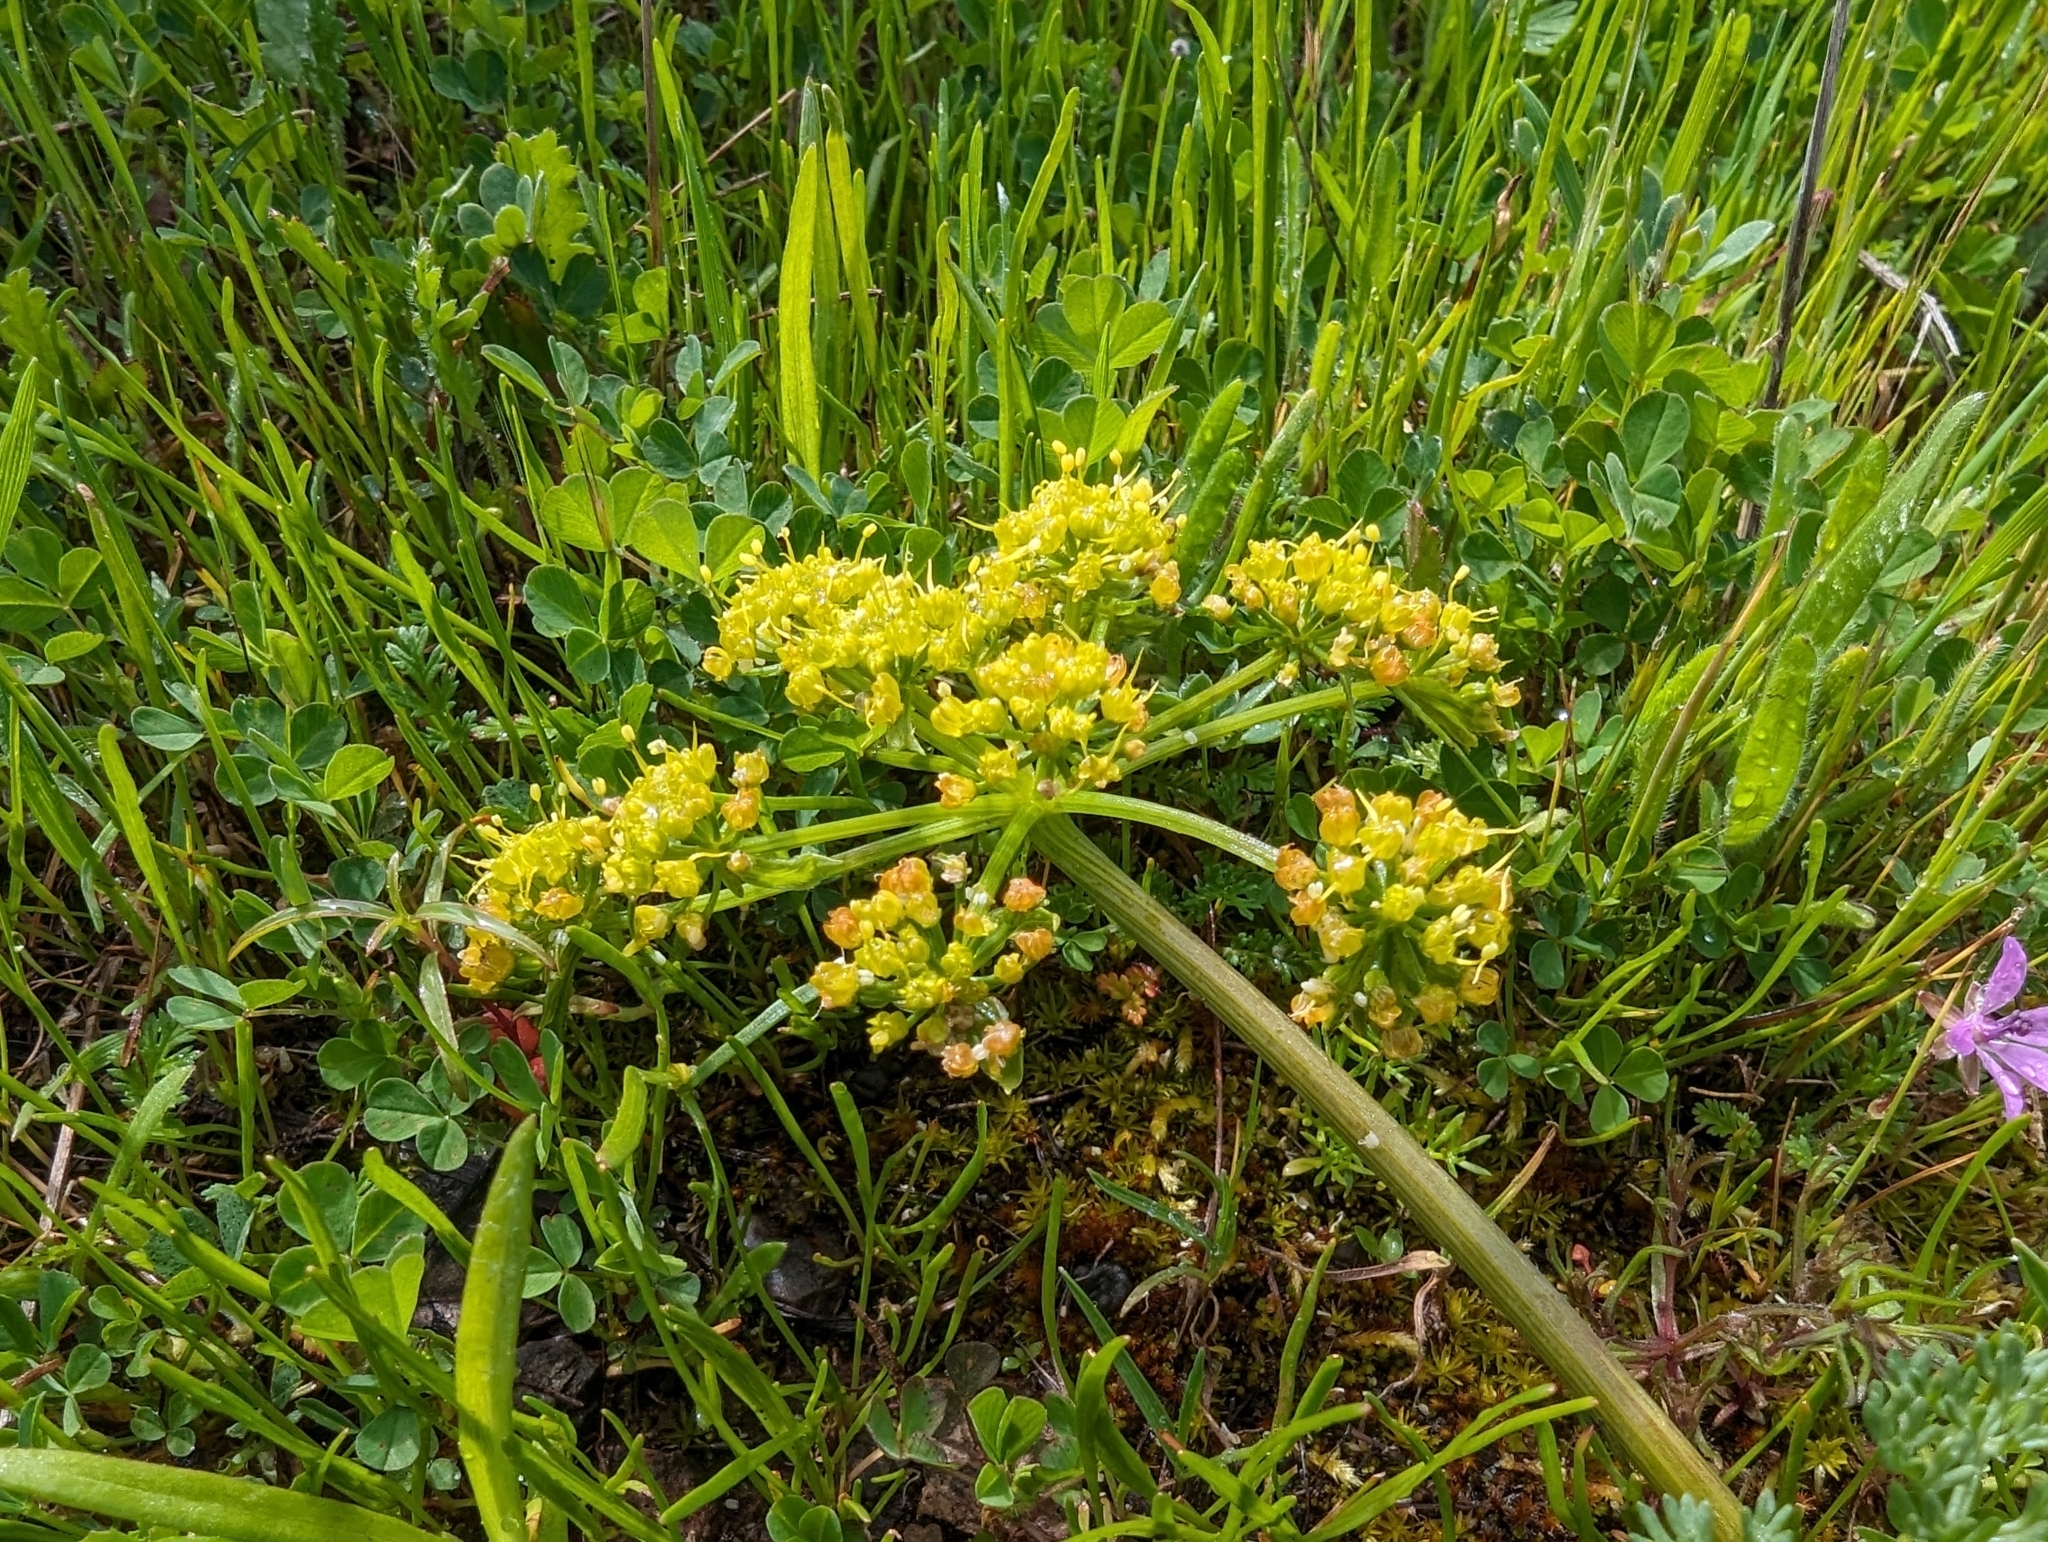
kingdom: Plantae
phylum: Tracheophyta
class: Magnoliopsida
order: Apiales
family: Apiaceae
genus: Lomatium
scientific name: Lomatium dasycarpum
